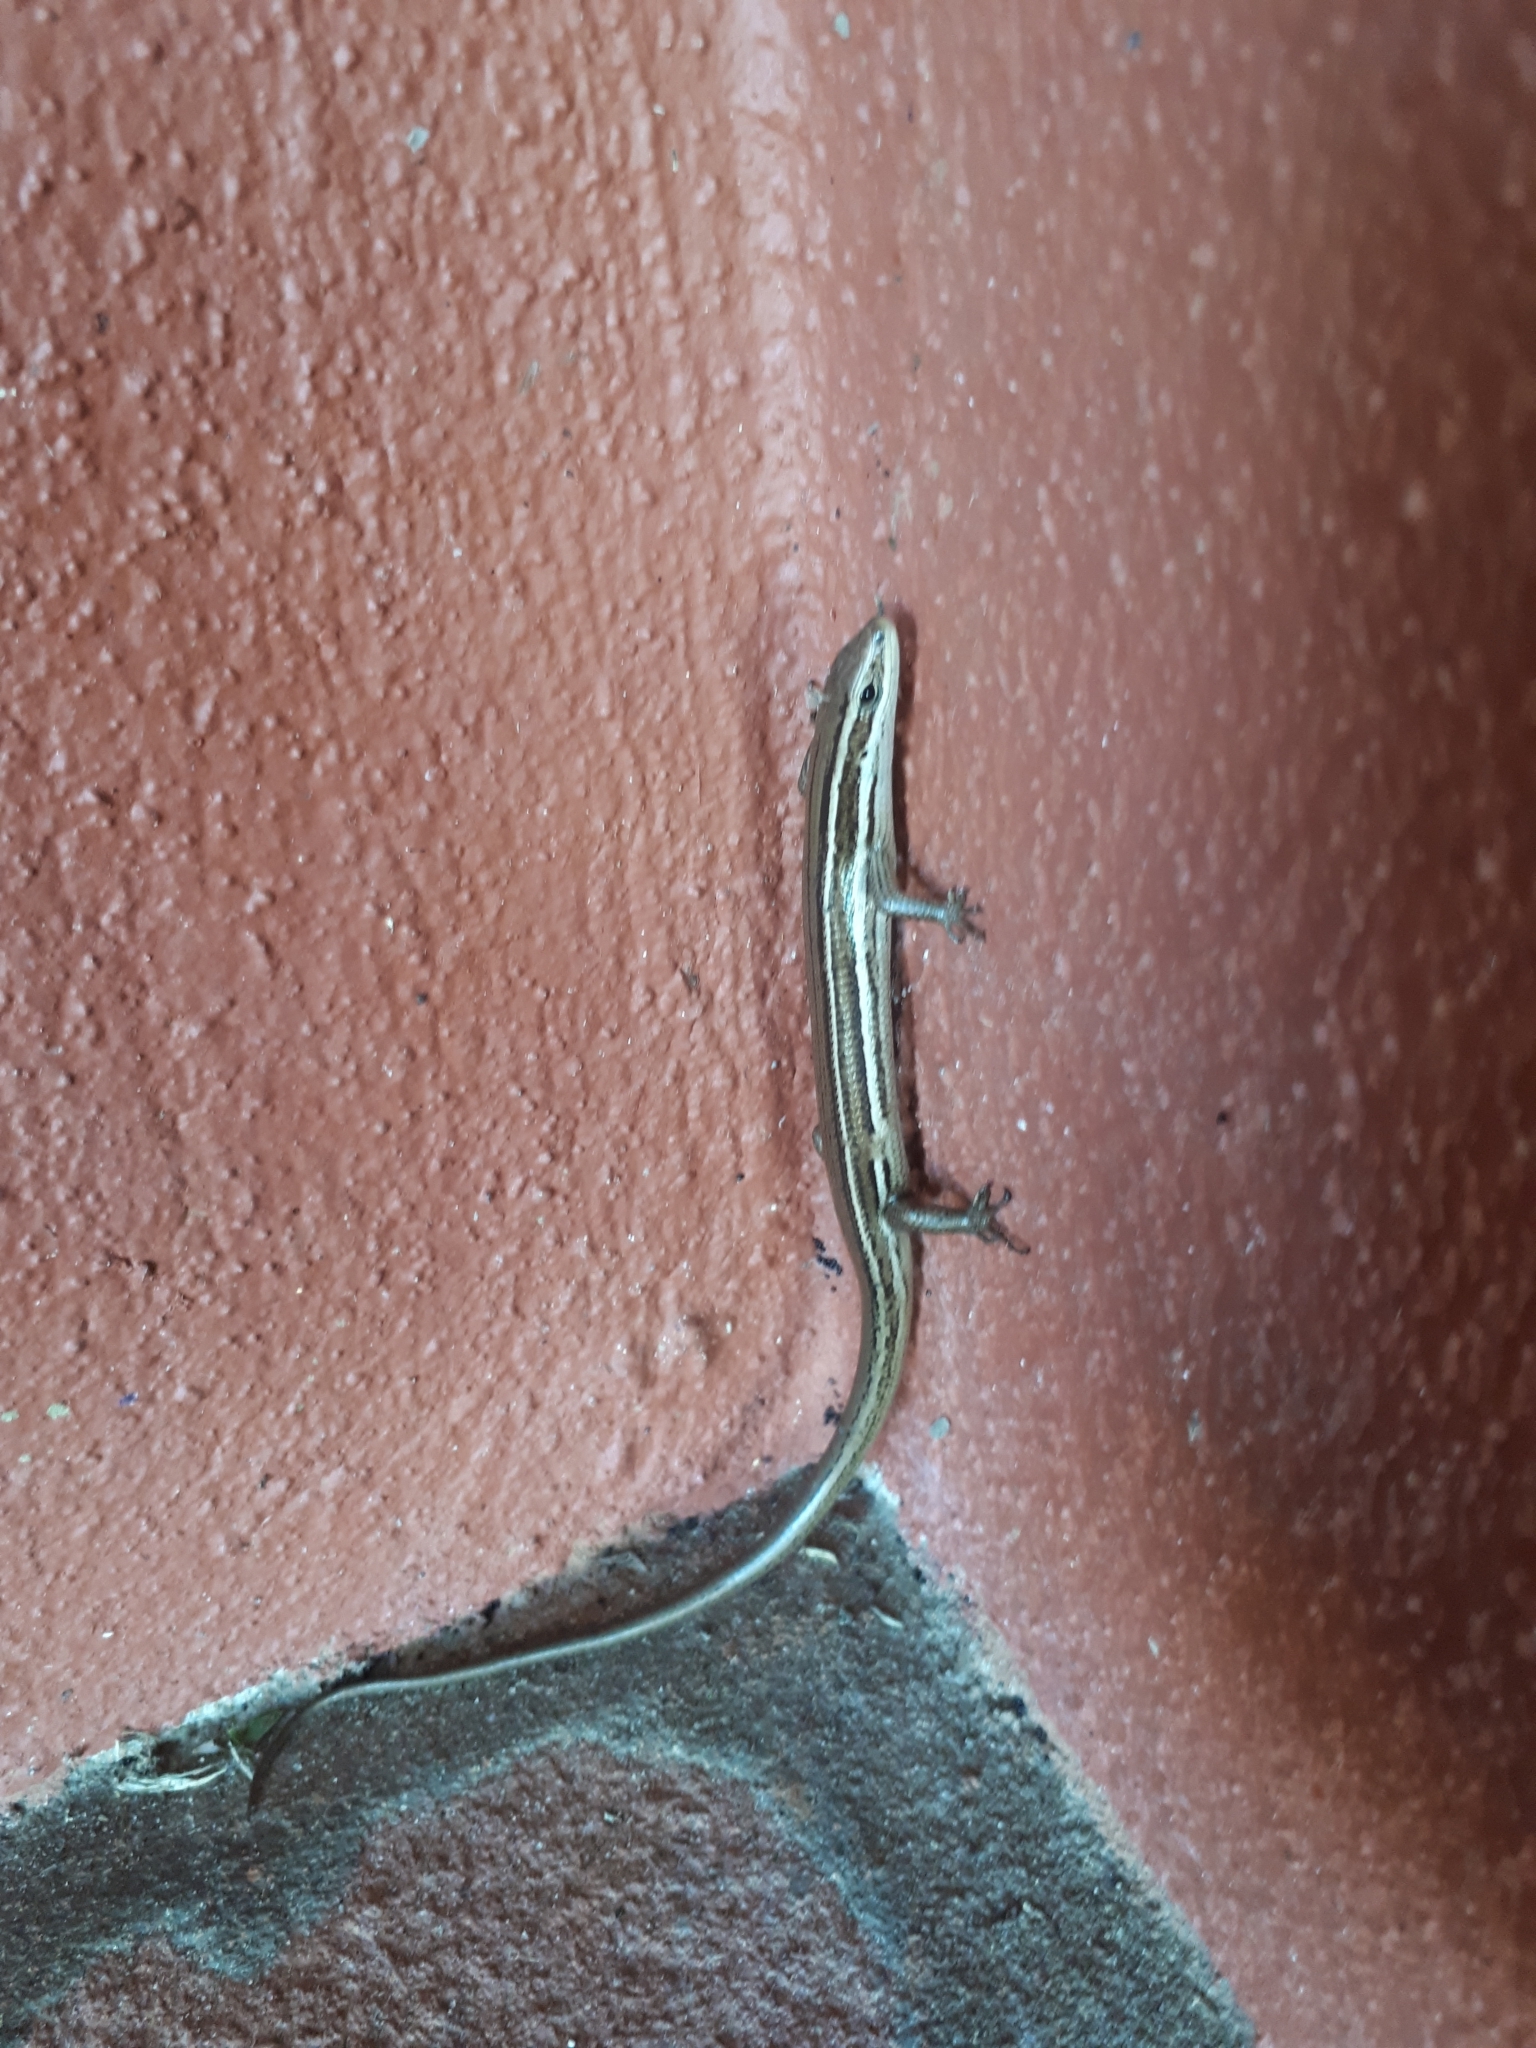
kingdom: Animalia
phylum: Chordata
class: Squamata
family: Scincidae
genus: Aspronema
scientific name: Aspronema dorsivittatum
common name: Paraguay mabuya
